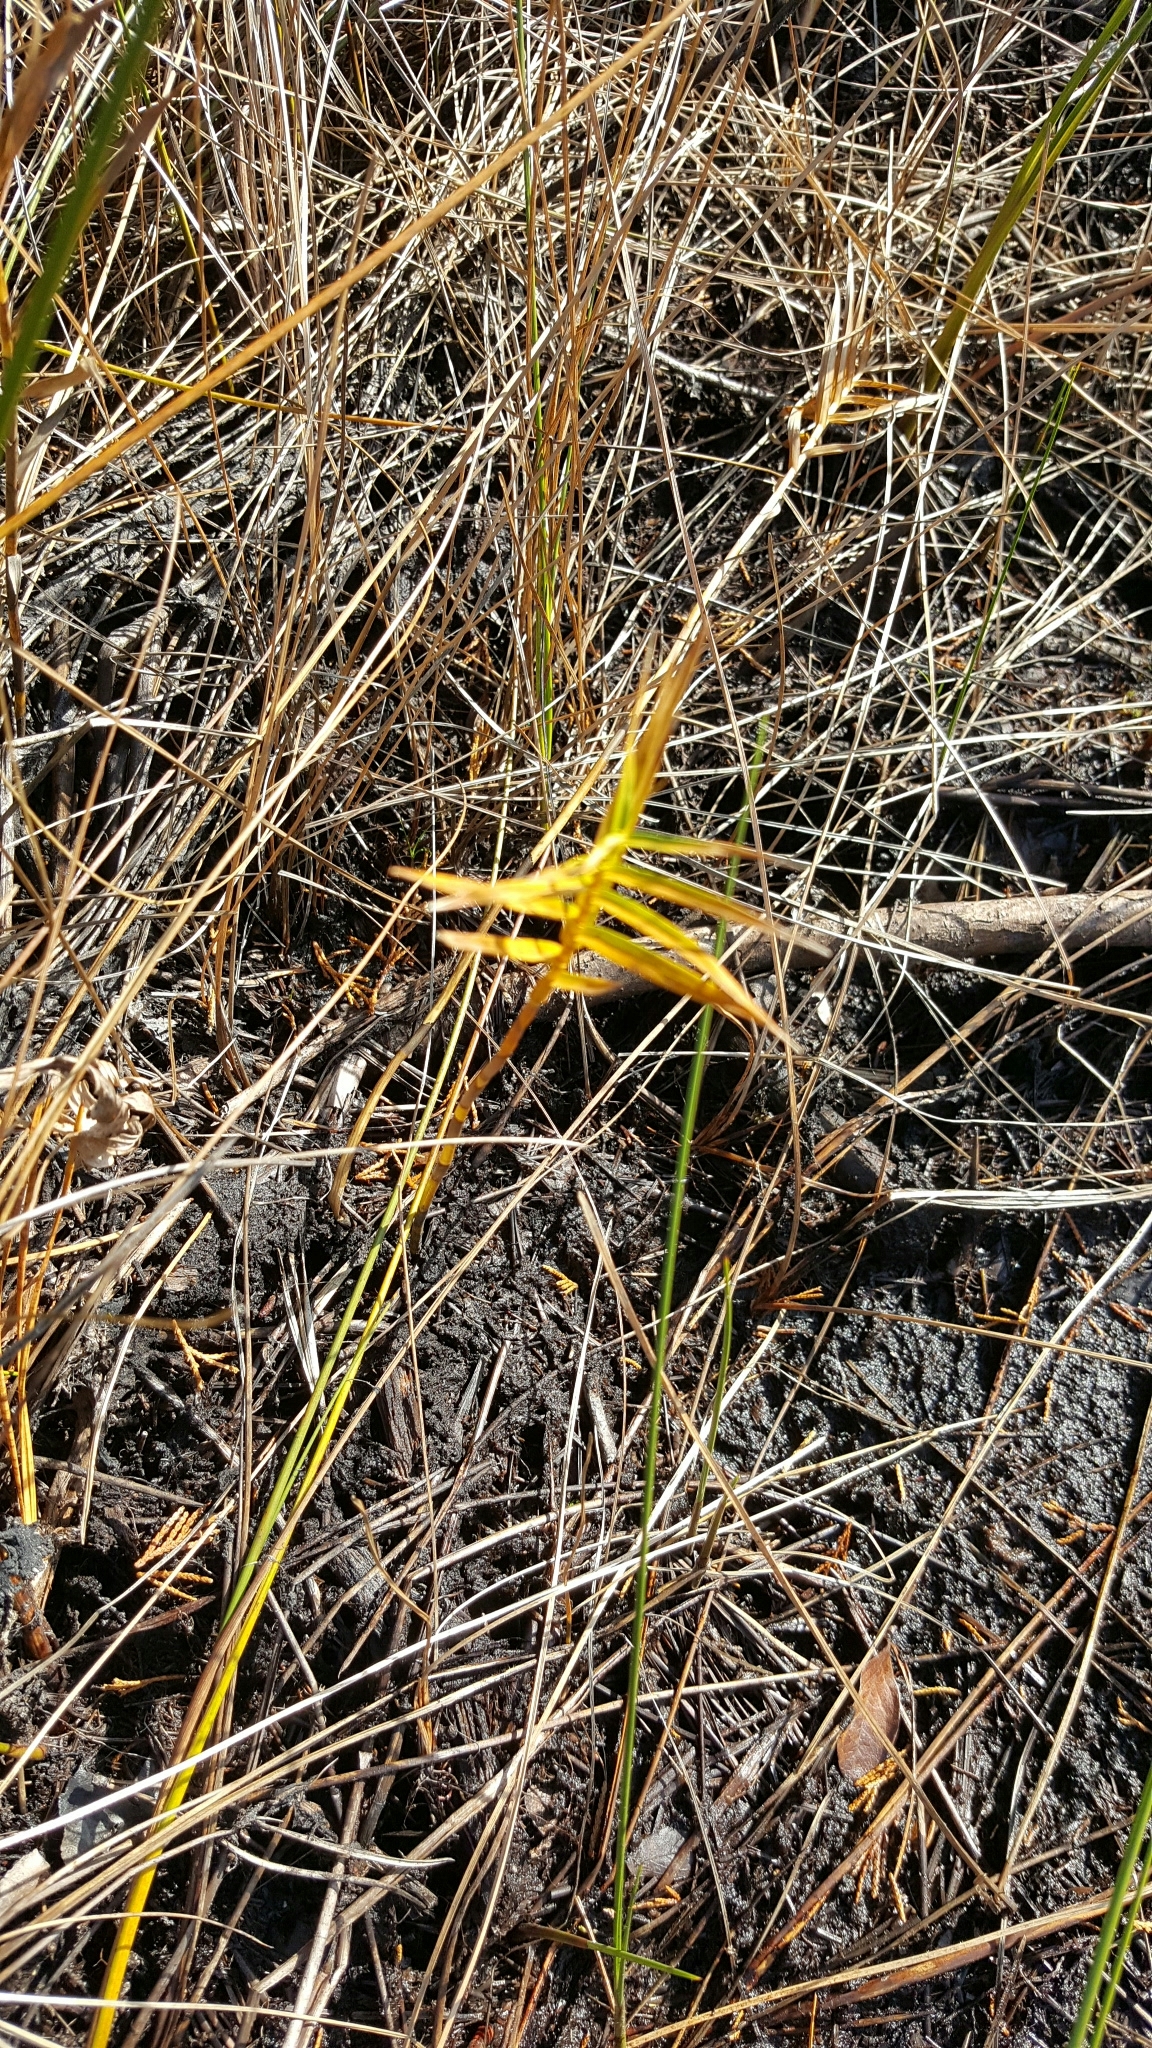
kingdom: Plantae
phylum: Tracheophyta
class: Liliopsida
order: Poales
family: Cyperaceae
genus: Dulichium
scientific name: Dulichium arundinaceum
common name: Three-way sedge
